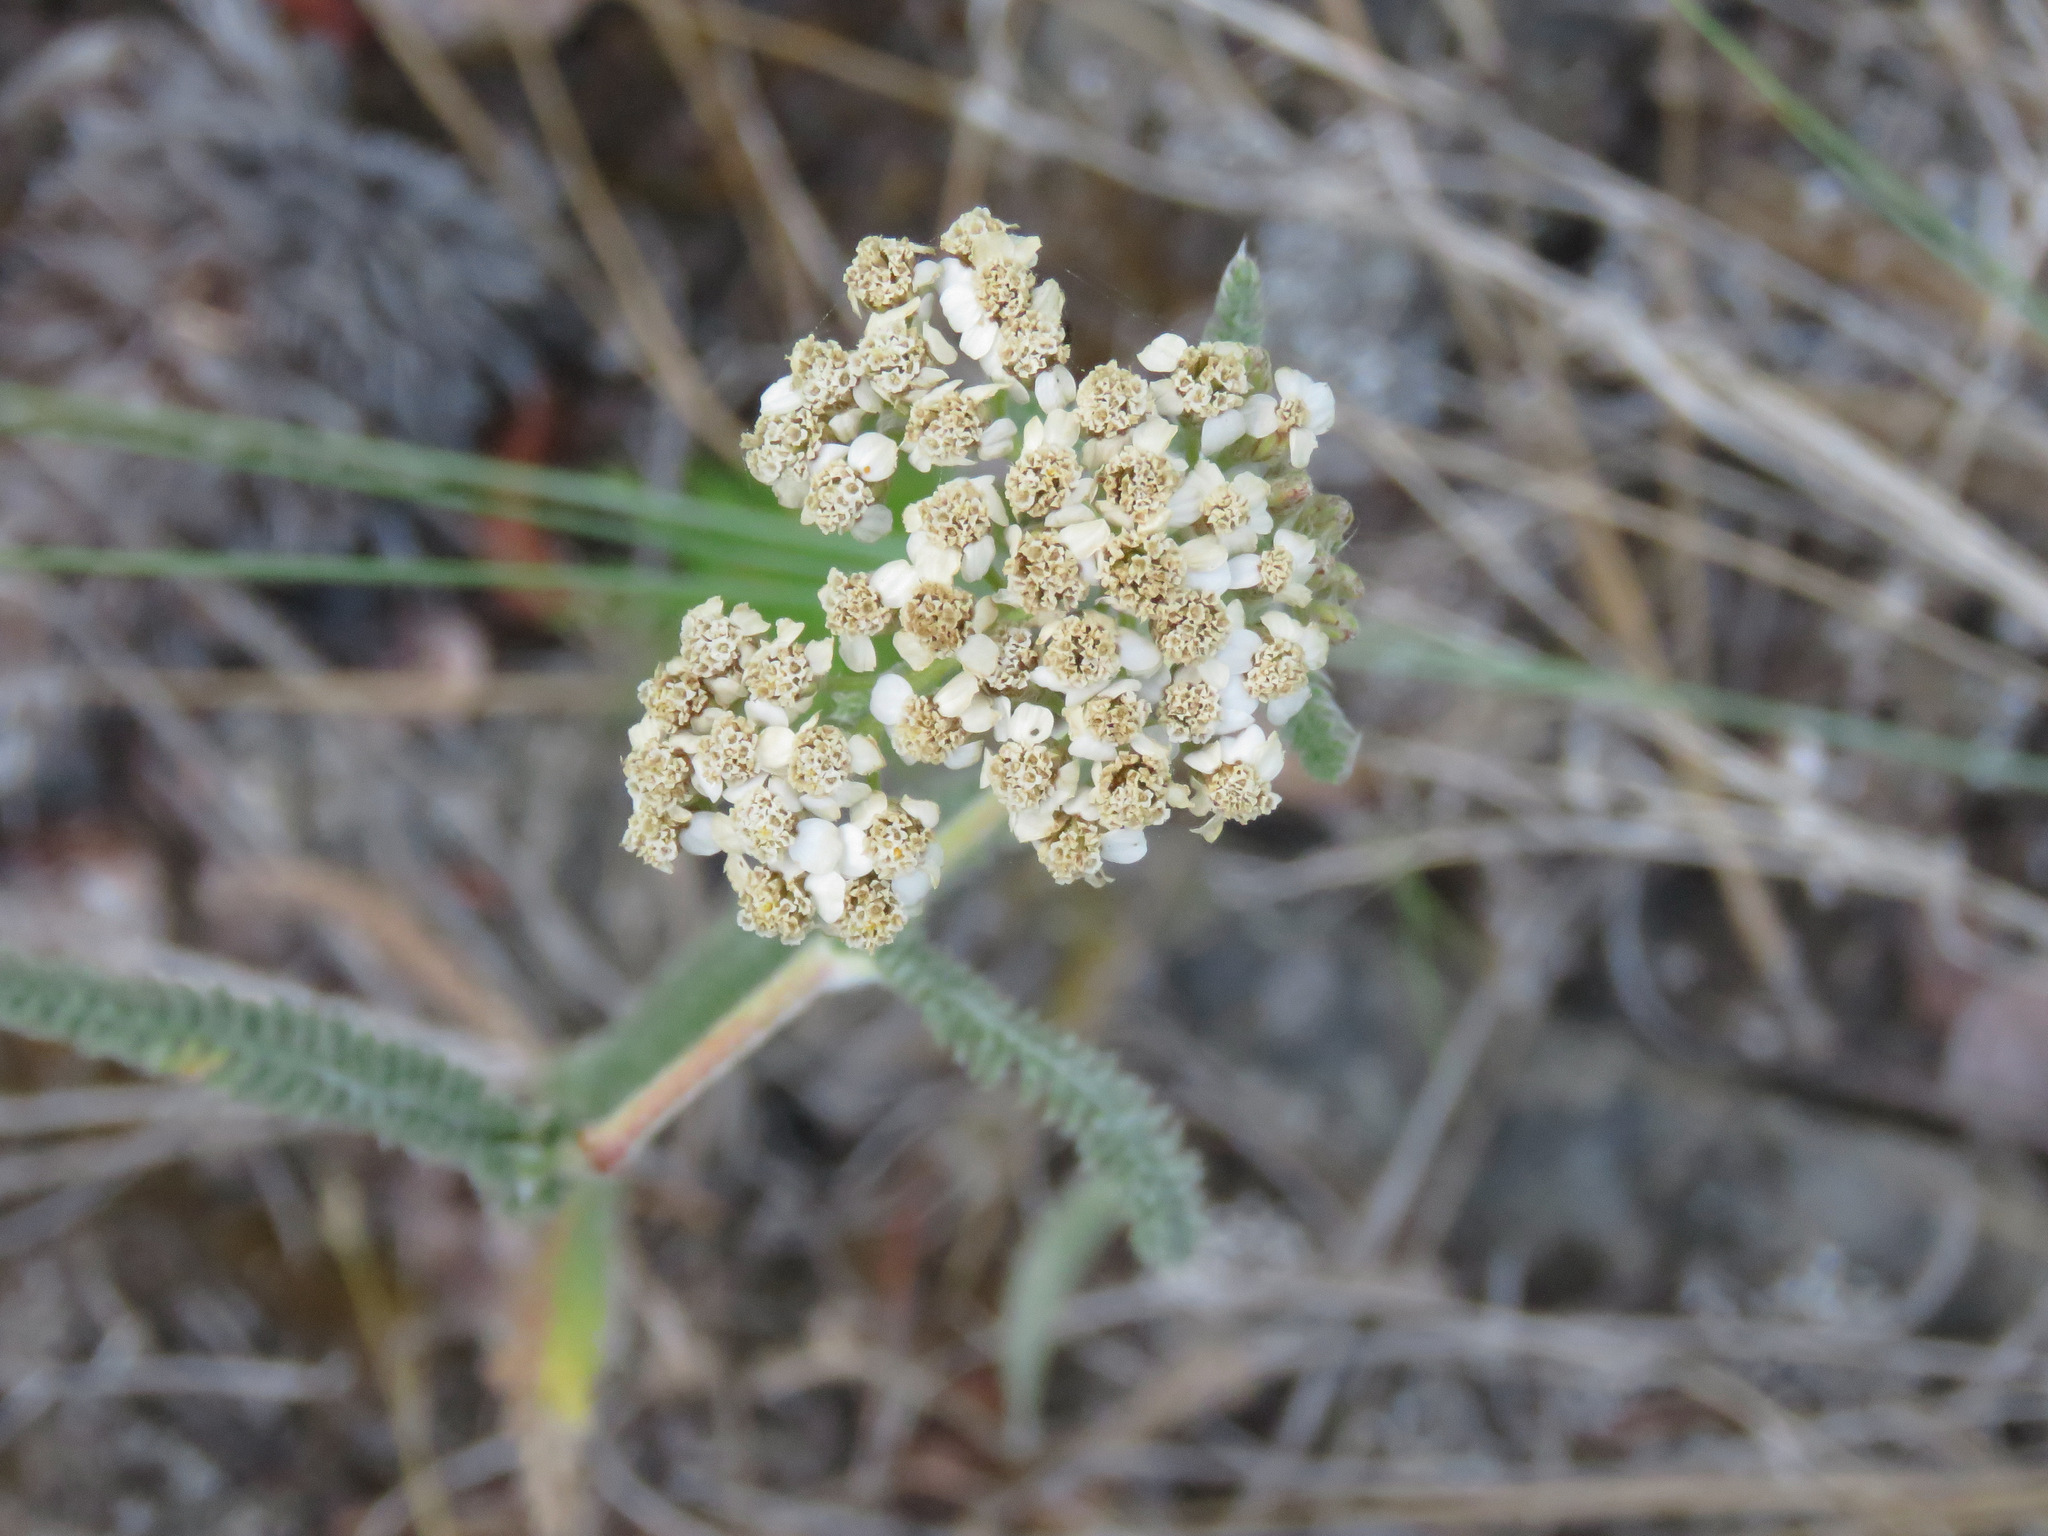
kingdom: Plantae
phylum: Tracheophyta
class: Magnoliopsida
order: Asterales
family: Asteraceae
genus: Achillea
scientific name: Achillea millefolium
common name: Yarrow
